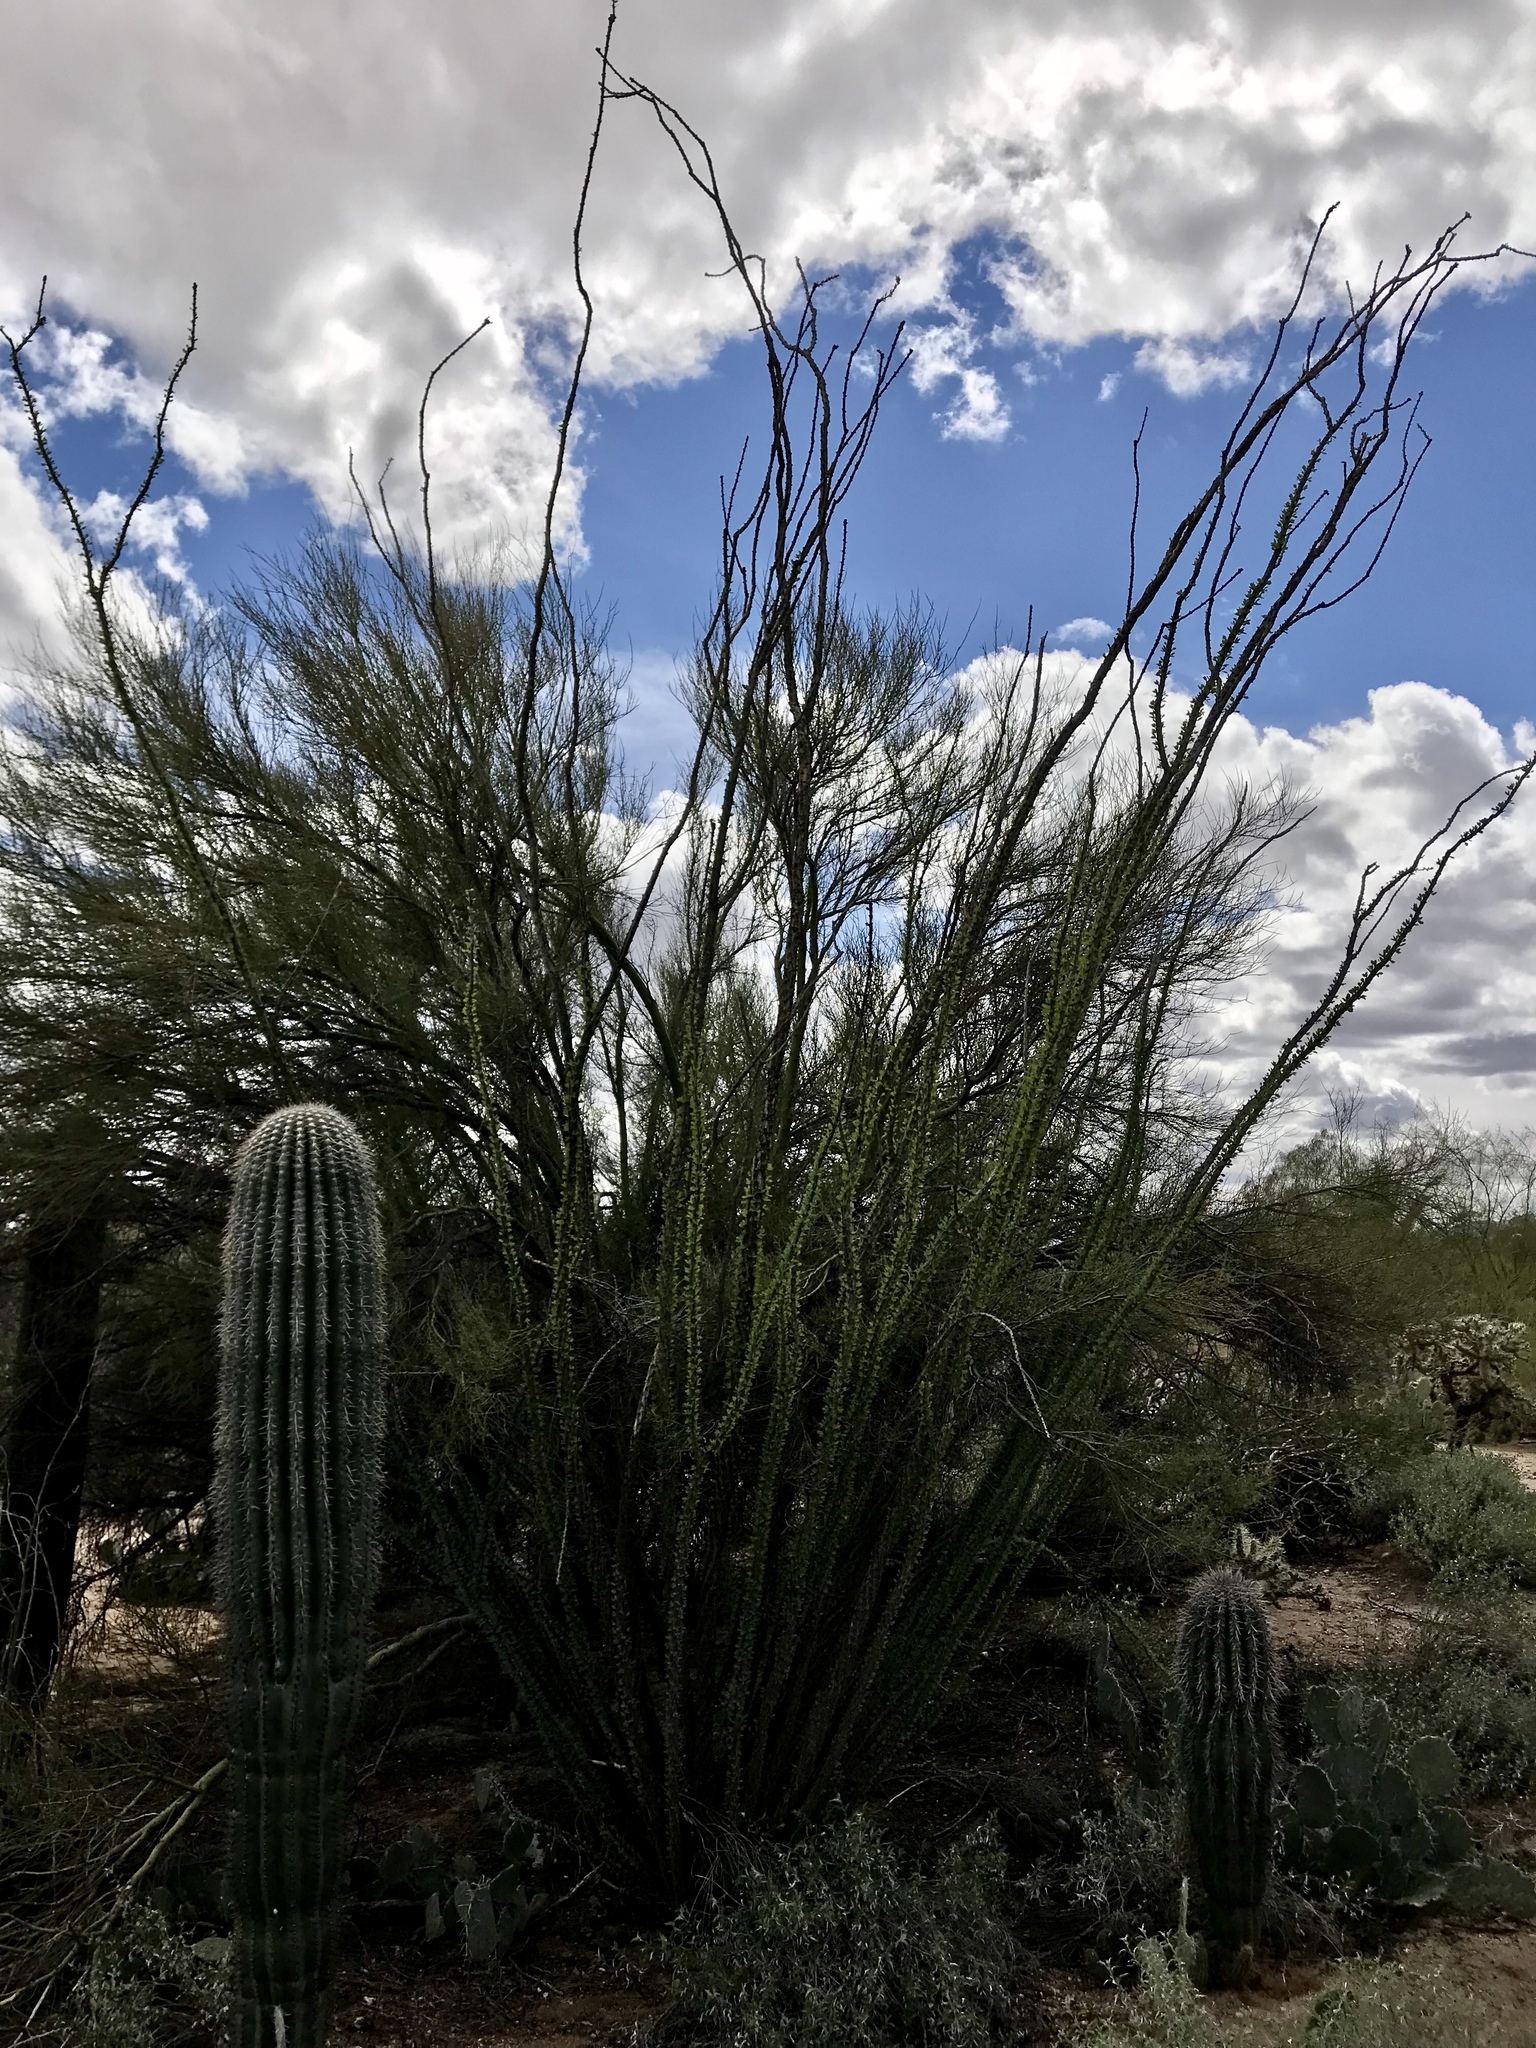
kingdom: Plantae
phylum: Tracheophyta
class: Magnoliopsida
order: Ericales
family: Fouquieriaceae
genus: Fouquieria
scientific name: Fouquieria splendens
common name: Vine-cactus
